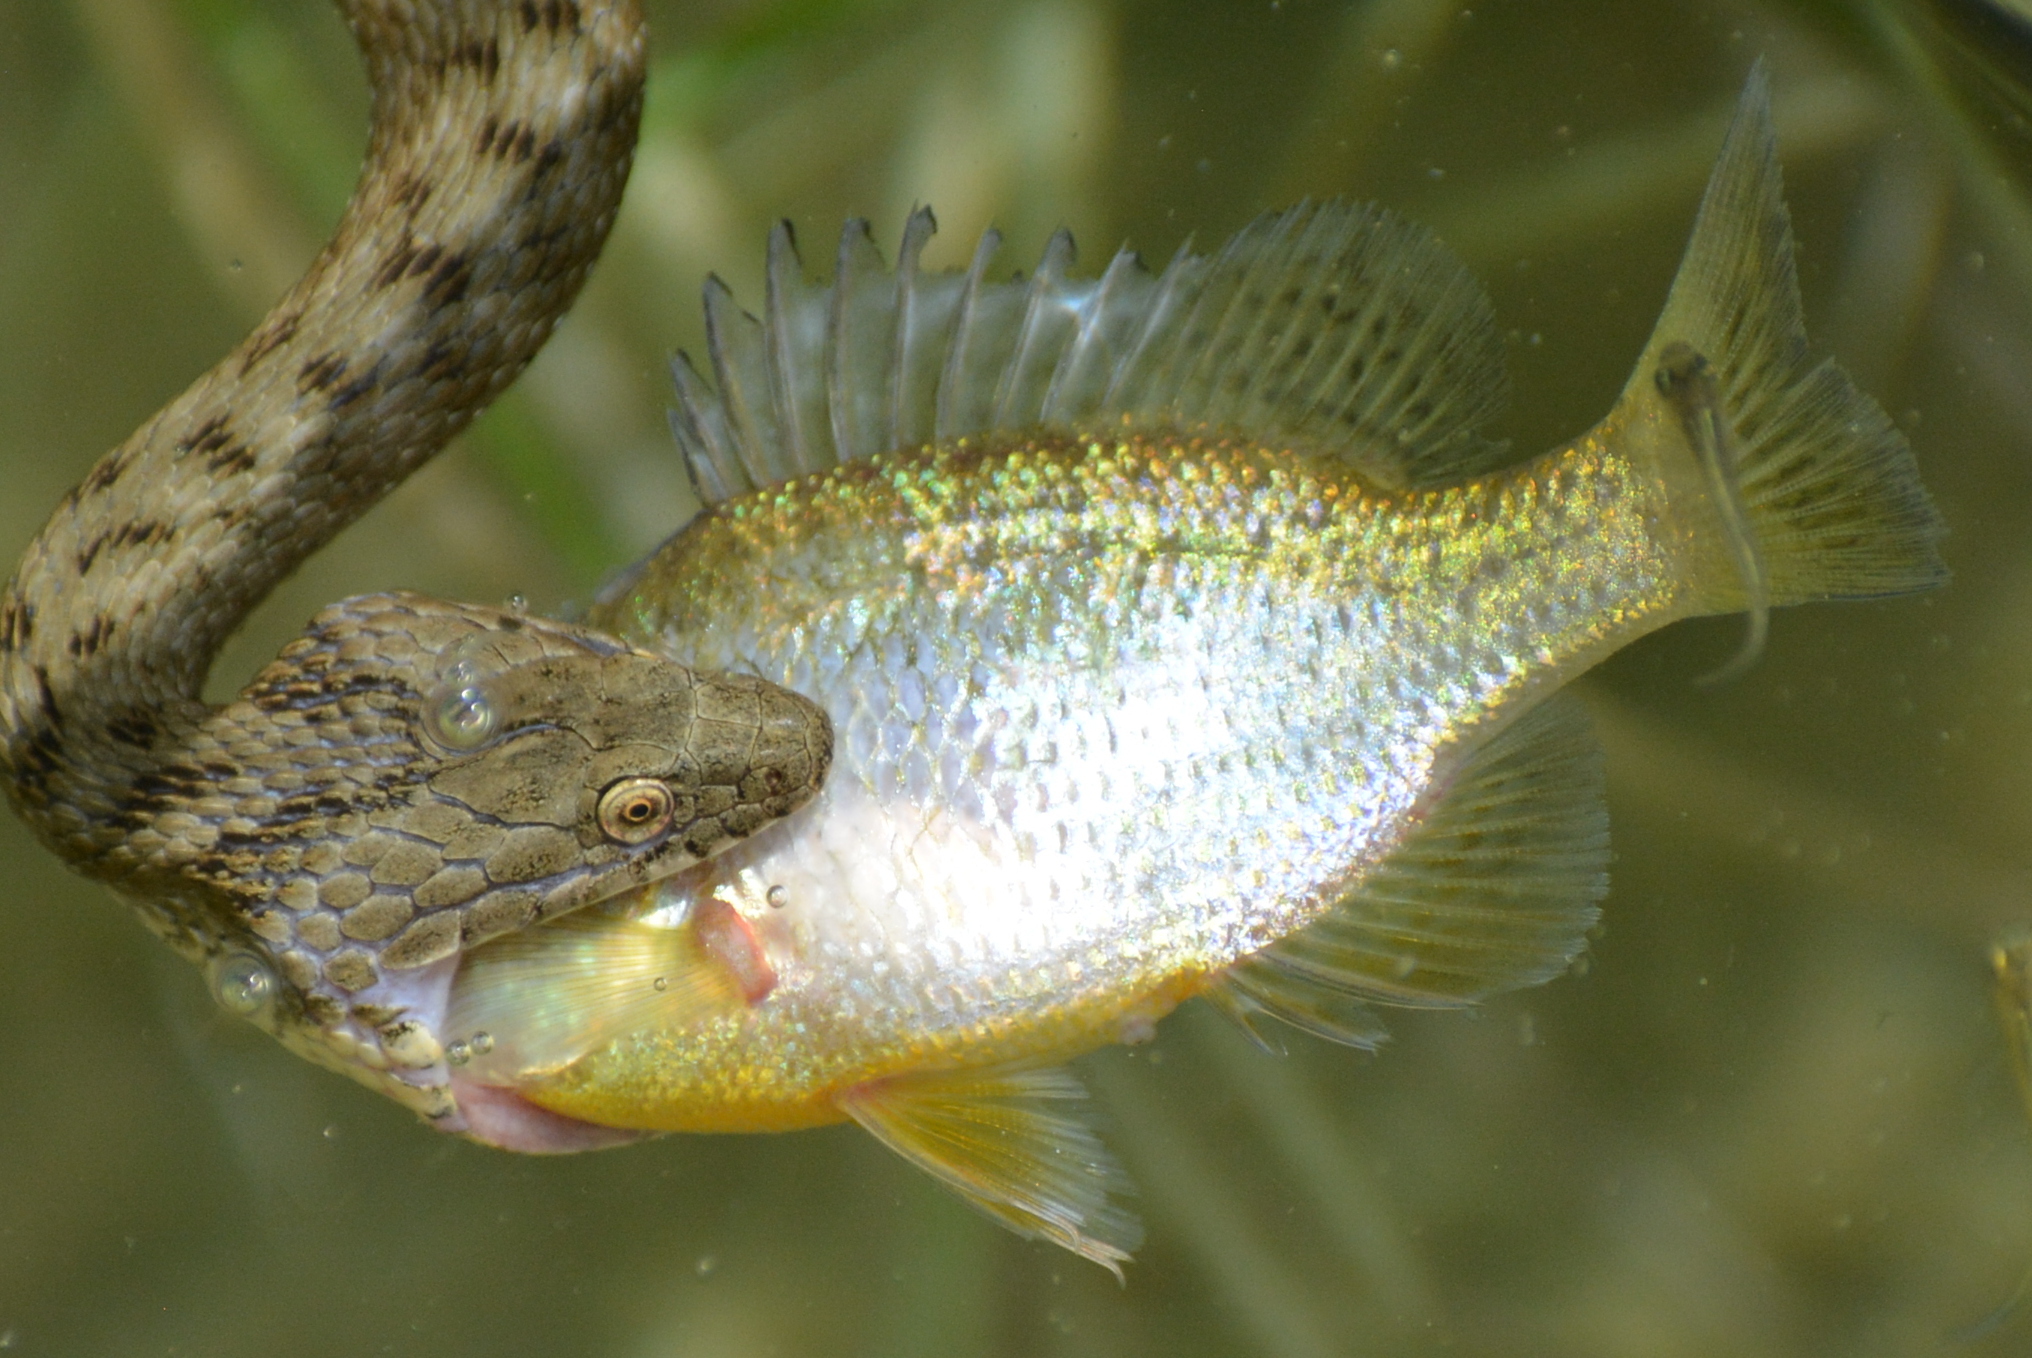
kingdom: Animalia
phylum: Chordata
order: Perciformes
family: Centrarchidae
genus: Lepomis
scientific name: Lepomis gibbosus
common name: Pumpkinseed
